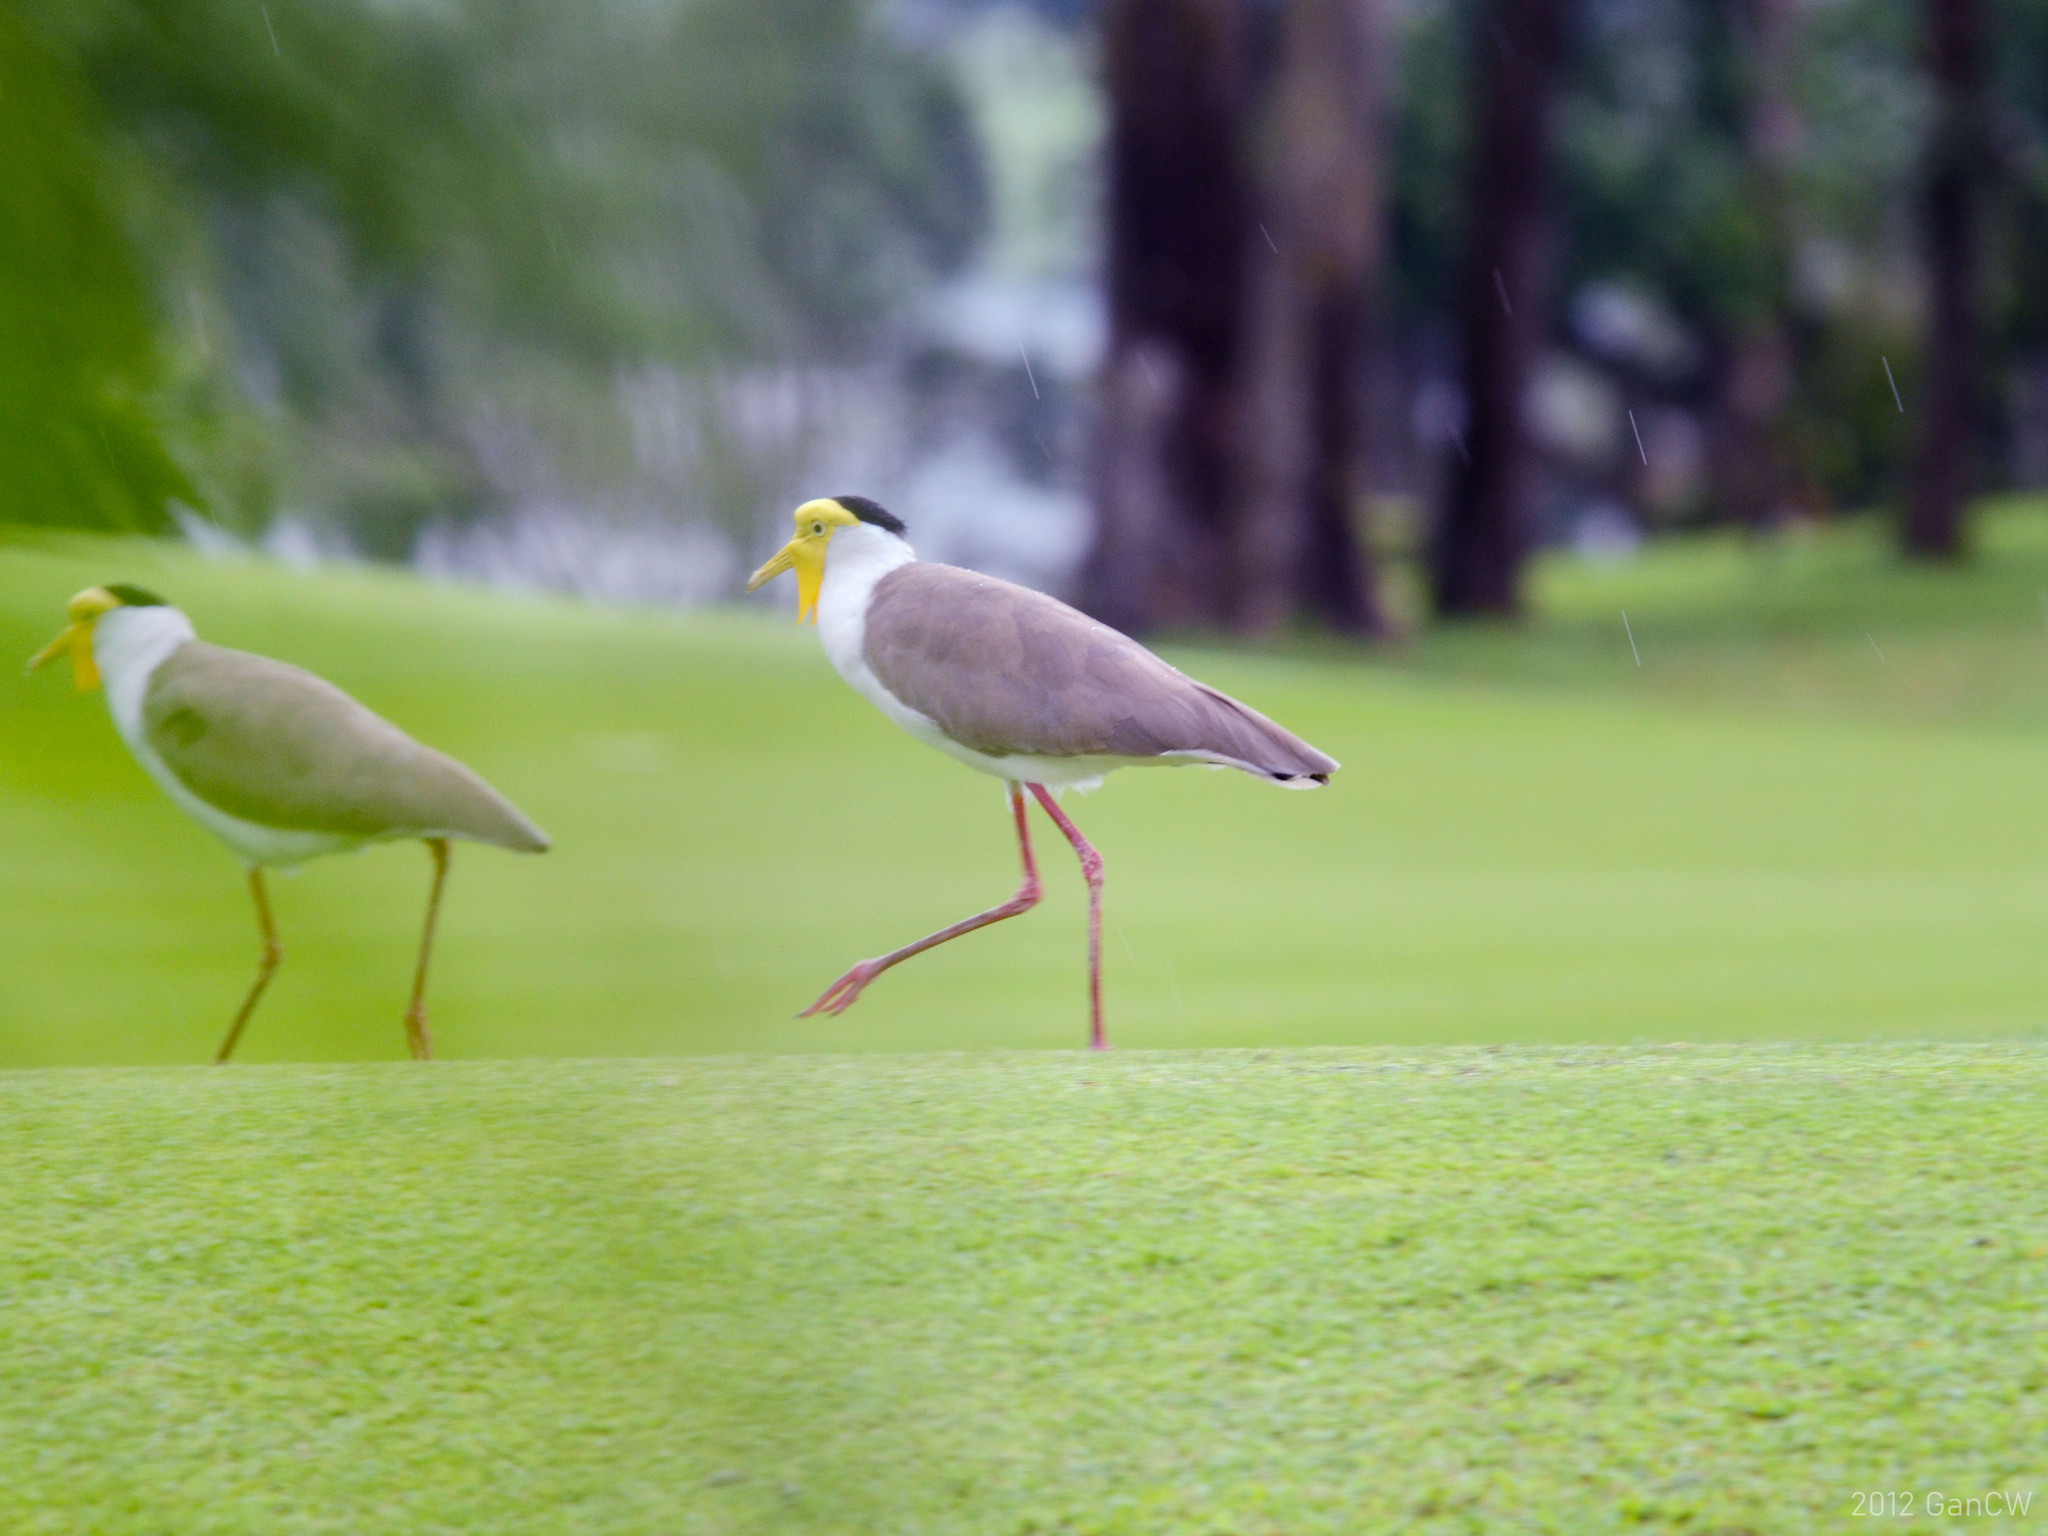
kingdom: Animalia
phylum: Chordata
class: Aves
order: Charadriiformes
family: Charadriidae
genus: Vanellus
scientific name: Vanellus miles
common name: Masked lapwing
